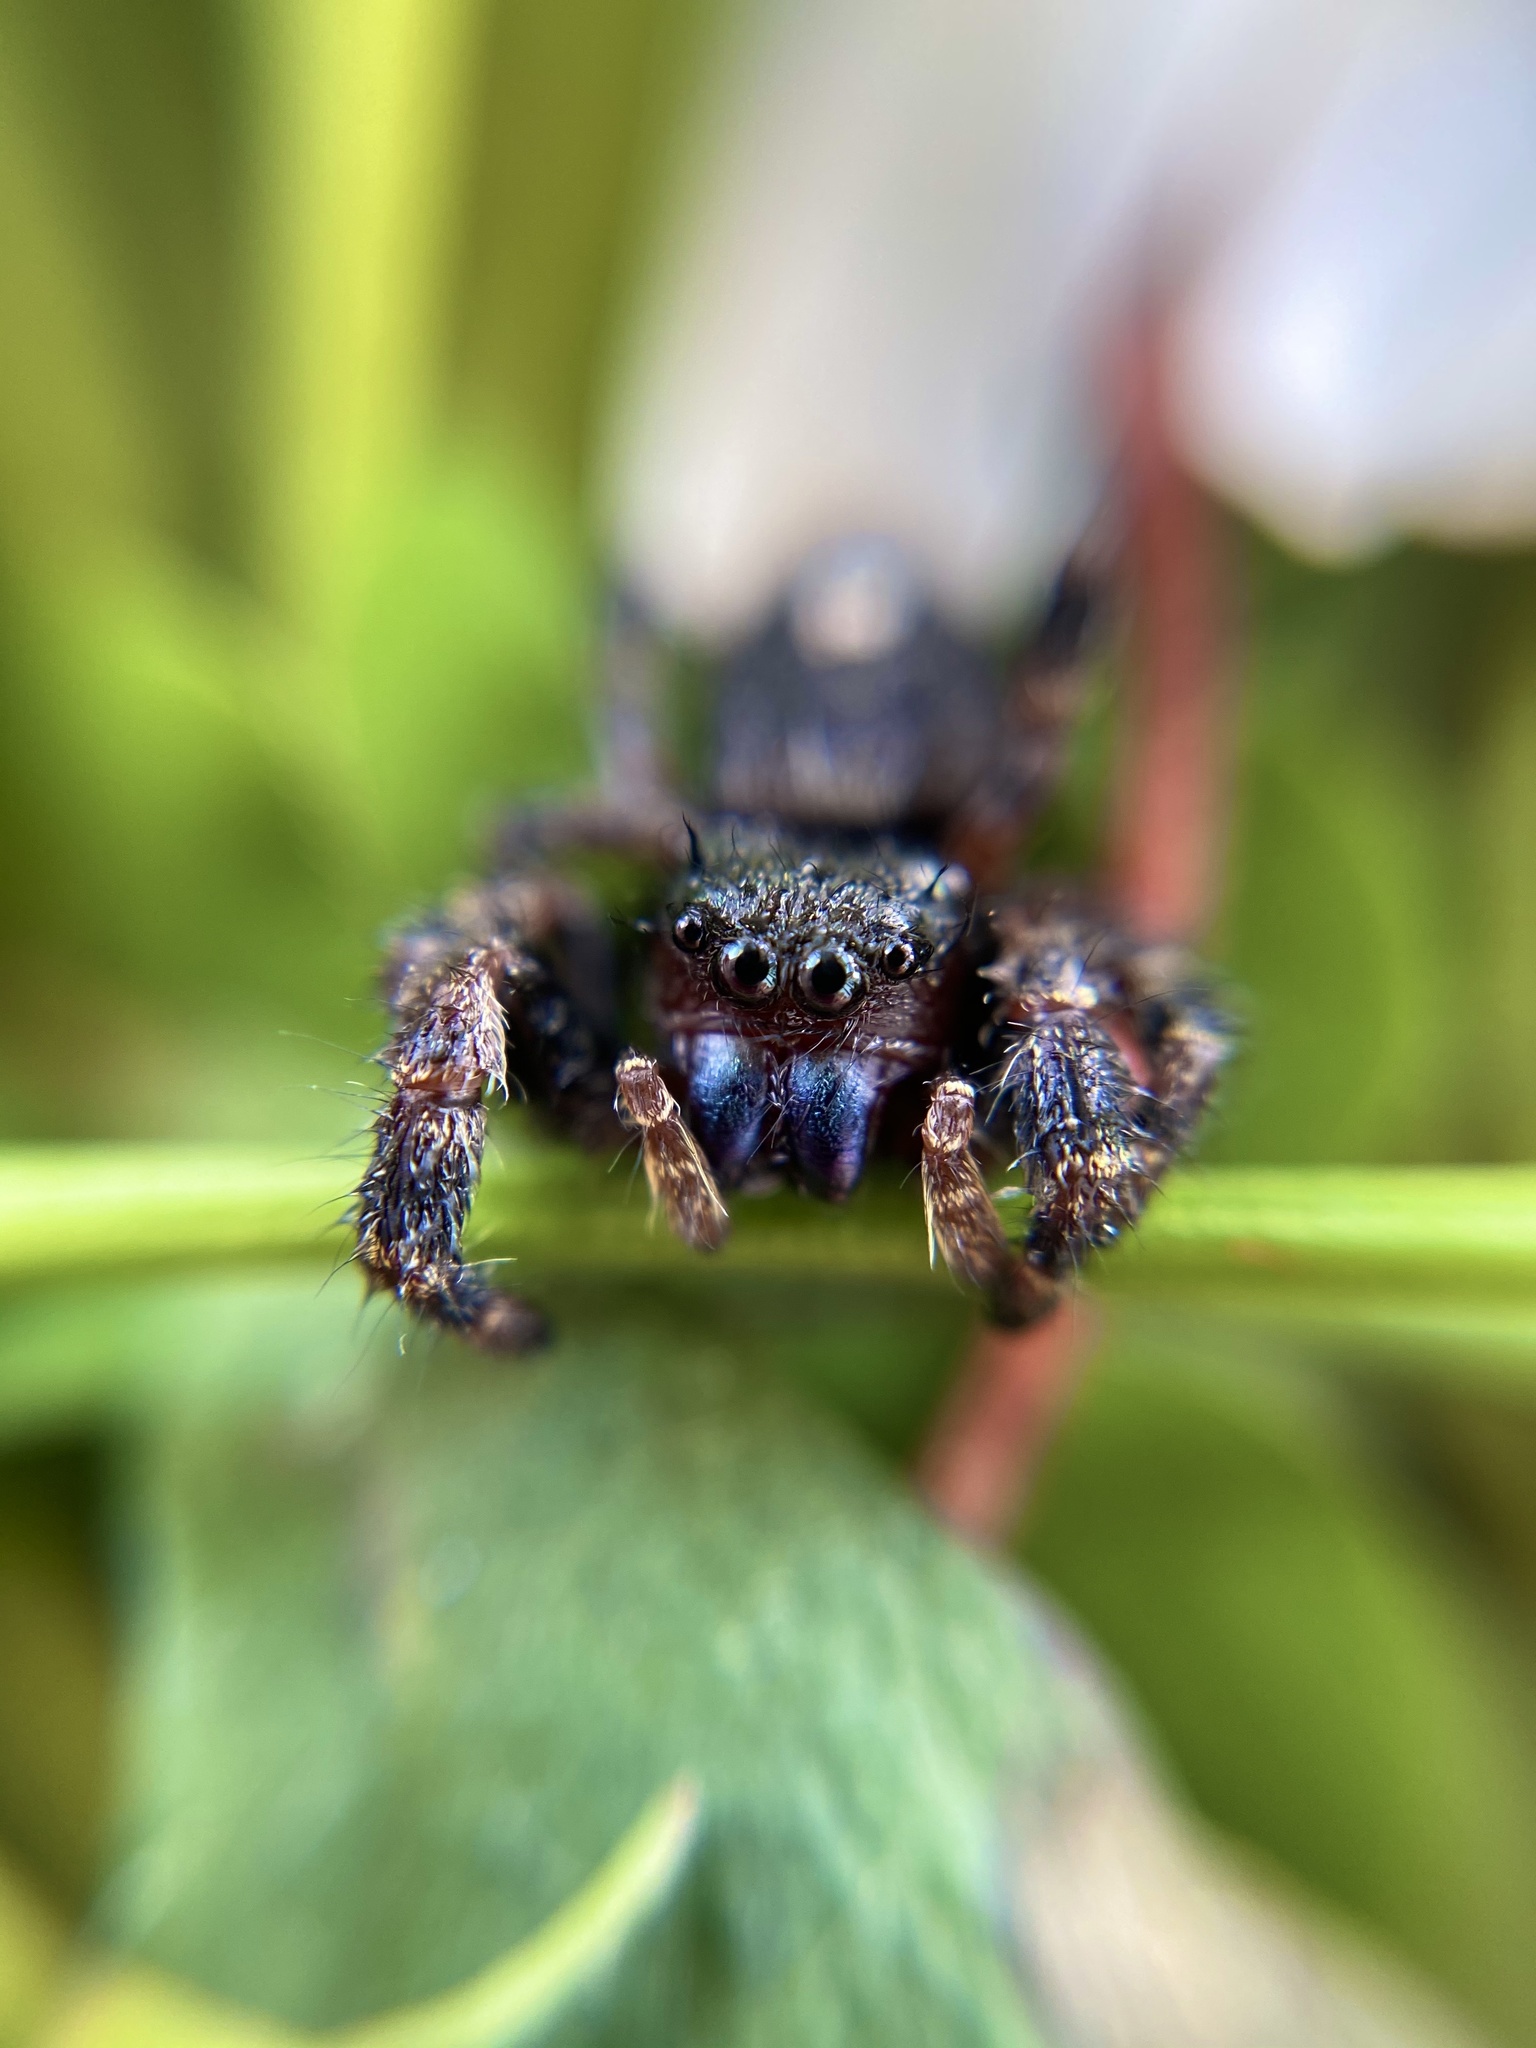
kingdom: Animalia
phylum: Arthropoda
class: Arachnida
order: Araneae
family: Salticidae
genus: Phidippus
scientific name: Phidippus audax
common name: Bold jumper
